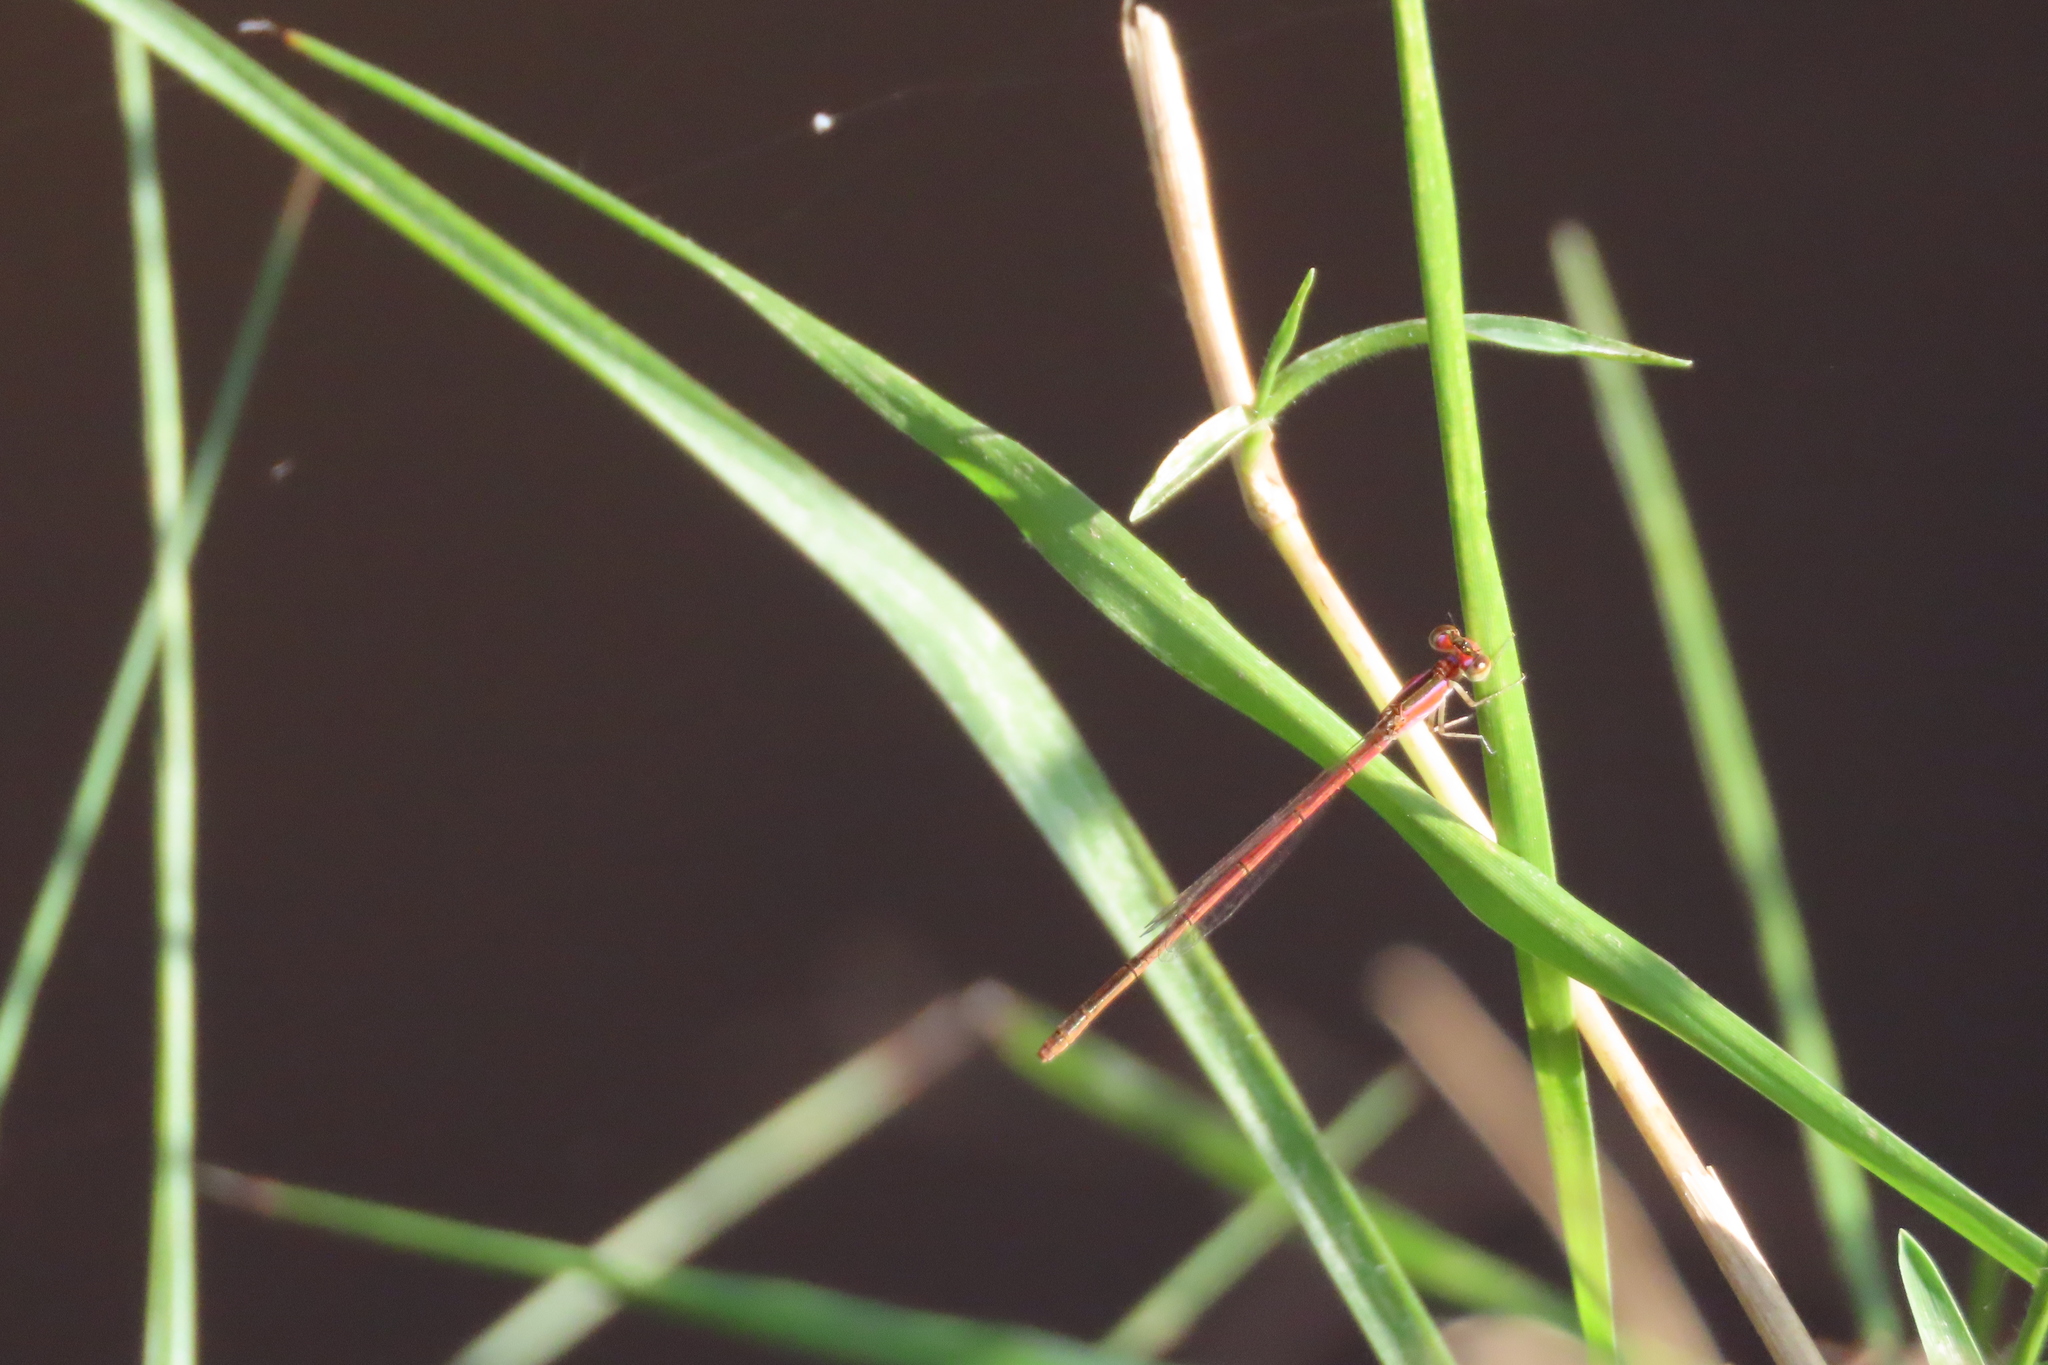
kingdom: Animalia
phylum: Arthropoda
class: Insecta
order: Odonata
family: Coenagrionidae
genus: Agriocnemis
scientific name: Agriocnemis pygmaea
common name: Pygmy wisp
